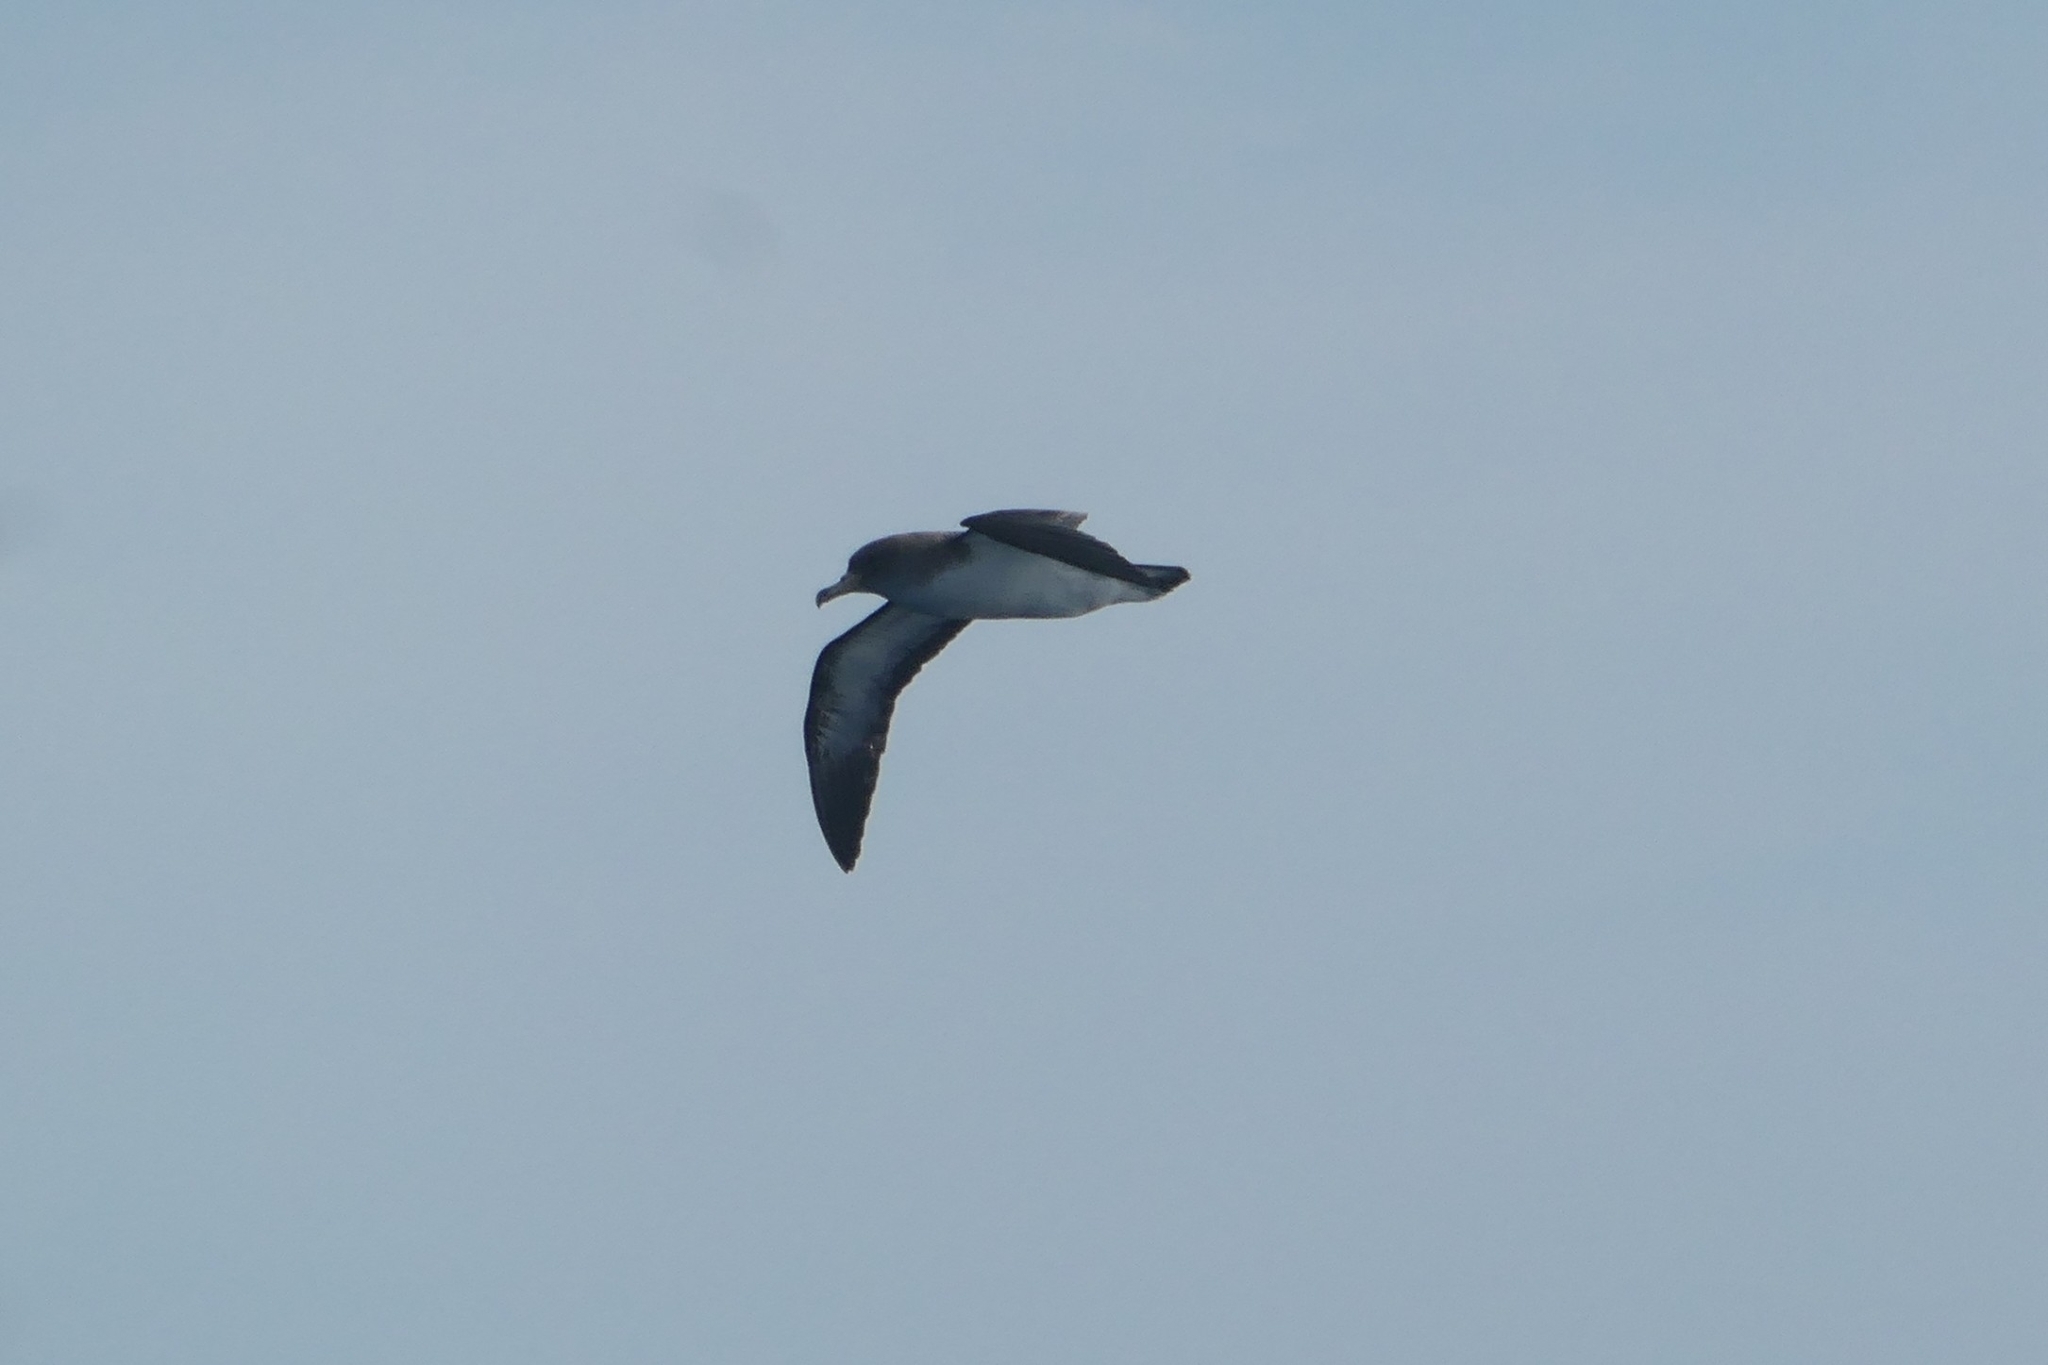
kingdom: Animalia
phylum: Chordata
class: Aves
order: Procellariiformes
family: Procellariidae
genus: Calonectris
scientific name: Calonectris diomedea
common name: Cory's shearwater
